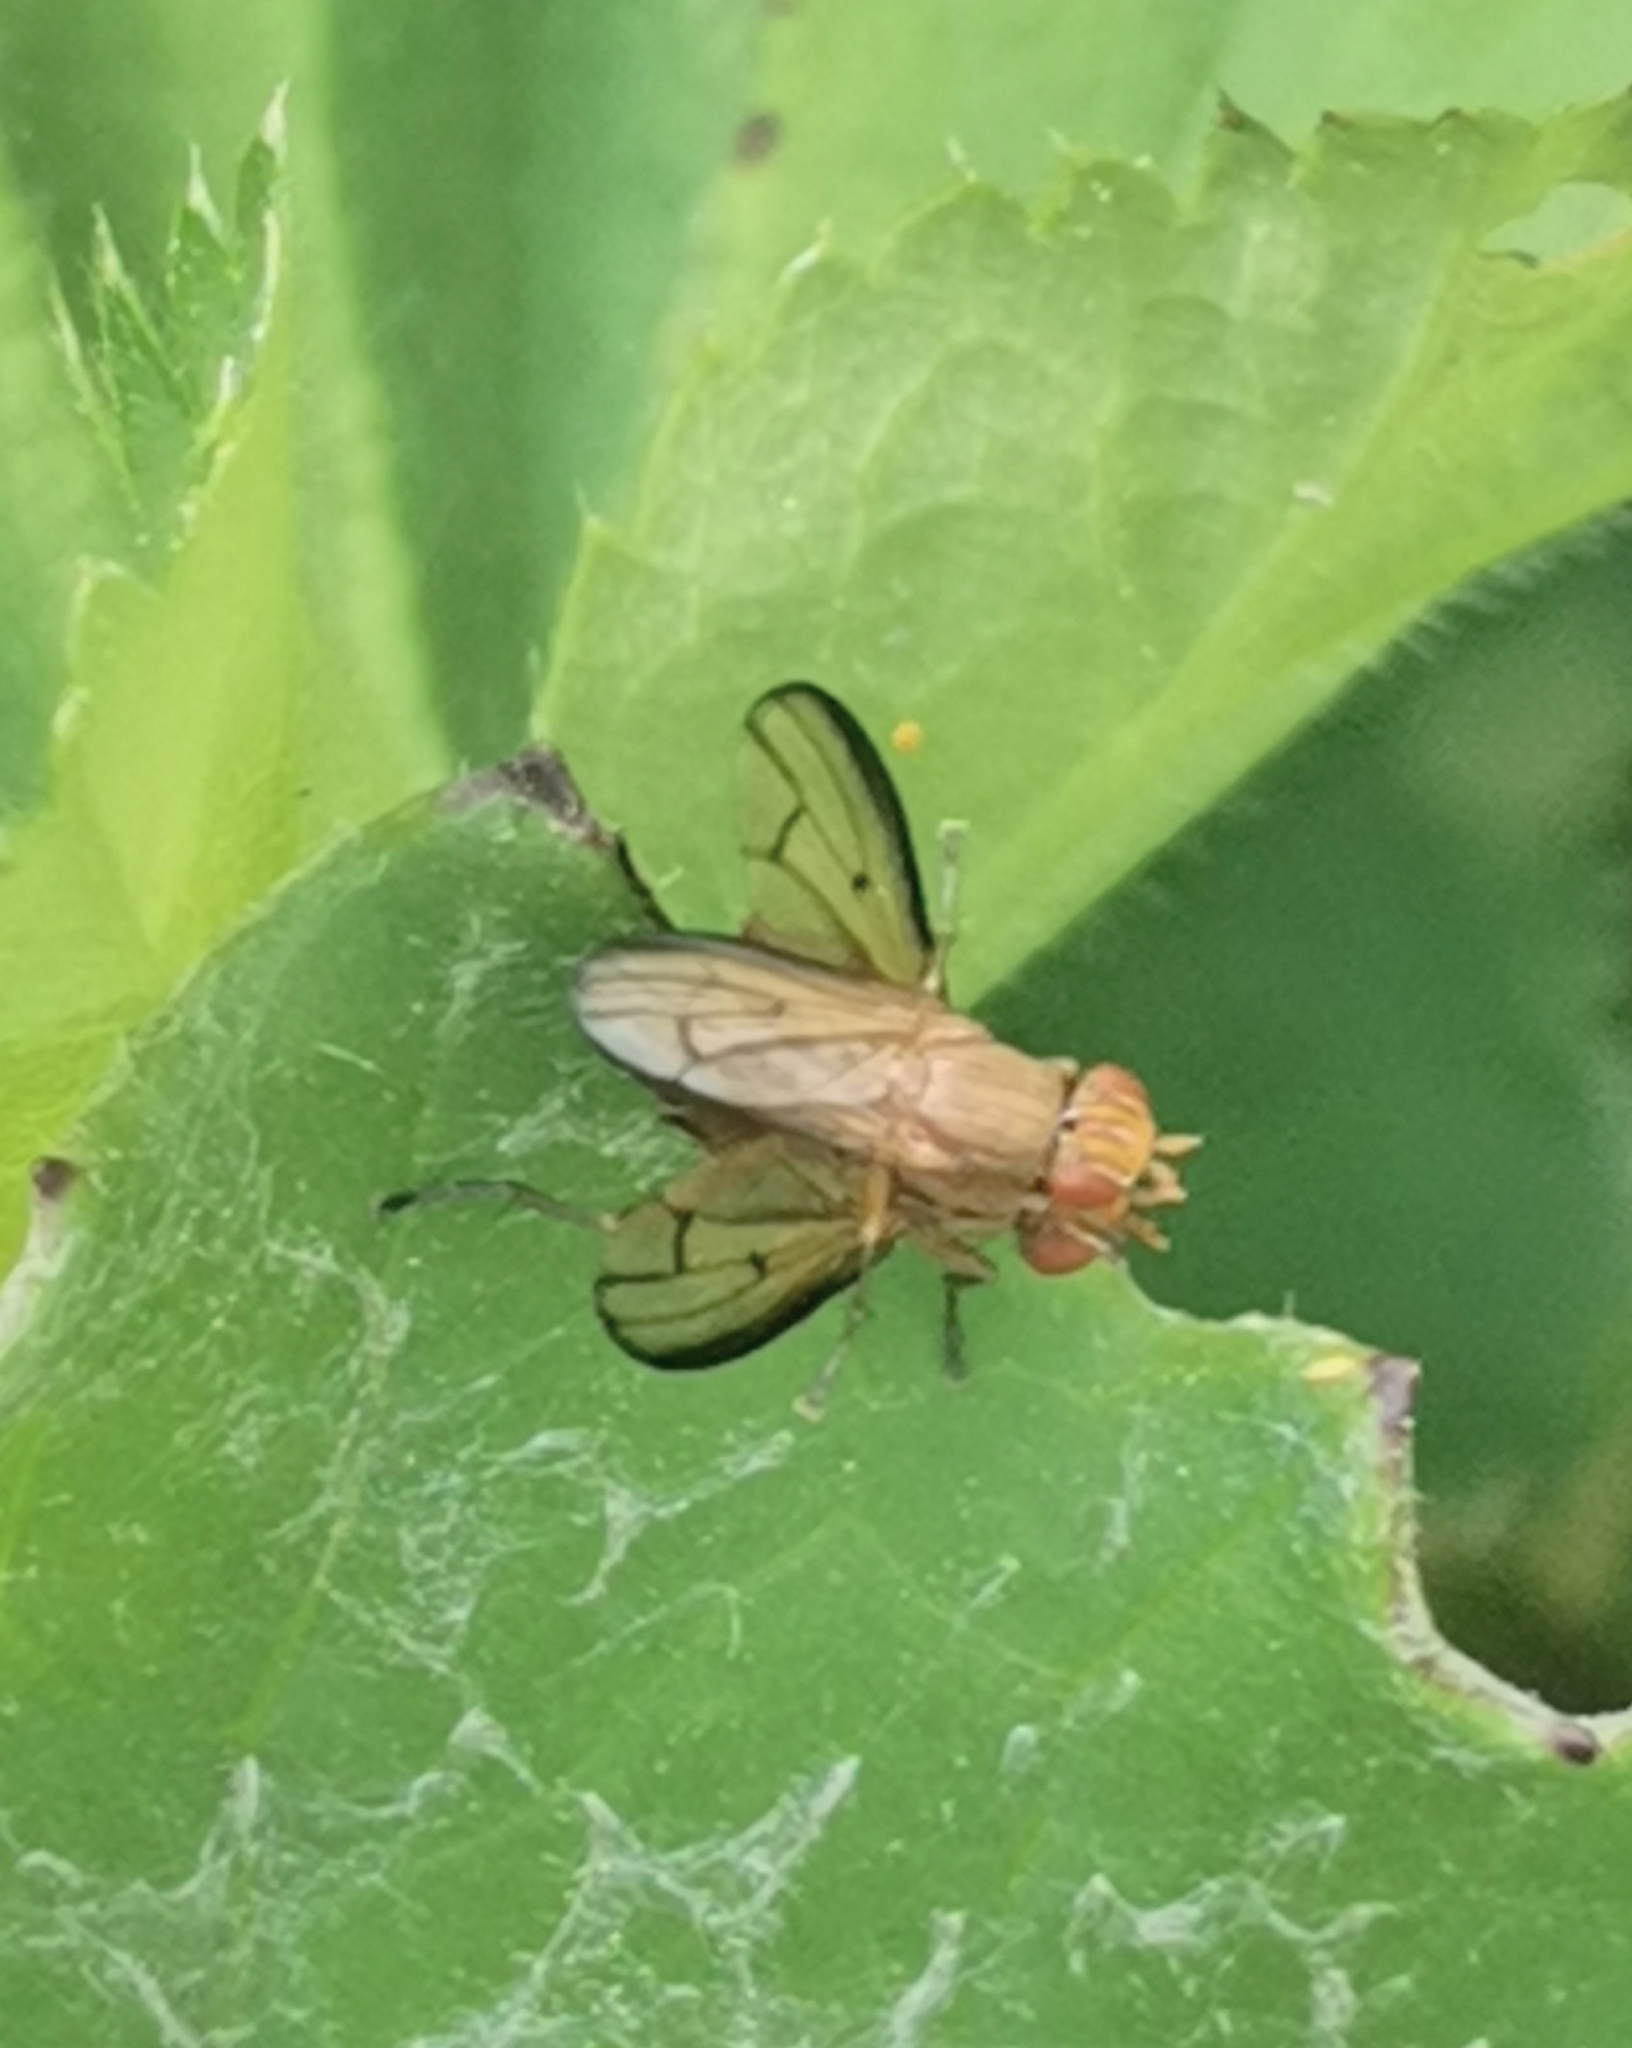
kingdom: Animalia
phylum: Arthropoda
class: Insecta
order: Diptera
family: Sciomyzidae
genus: Tetanocera
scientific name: Tetanocera elata
